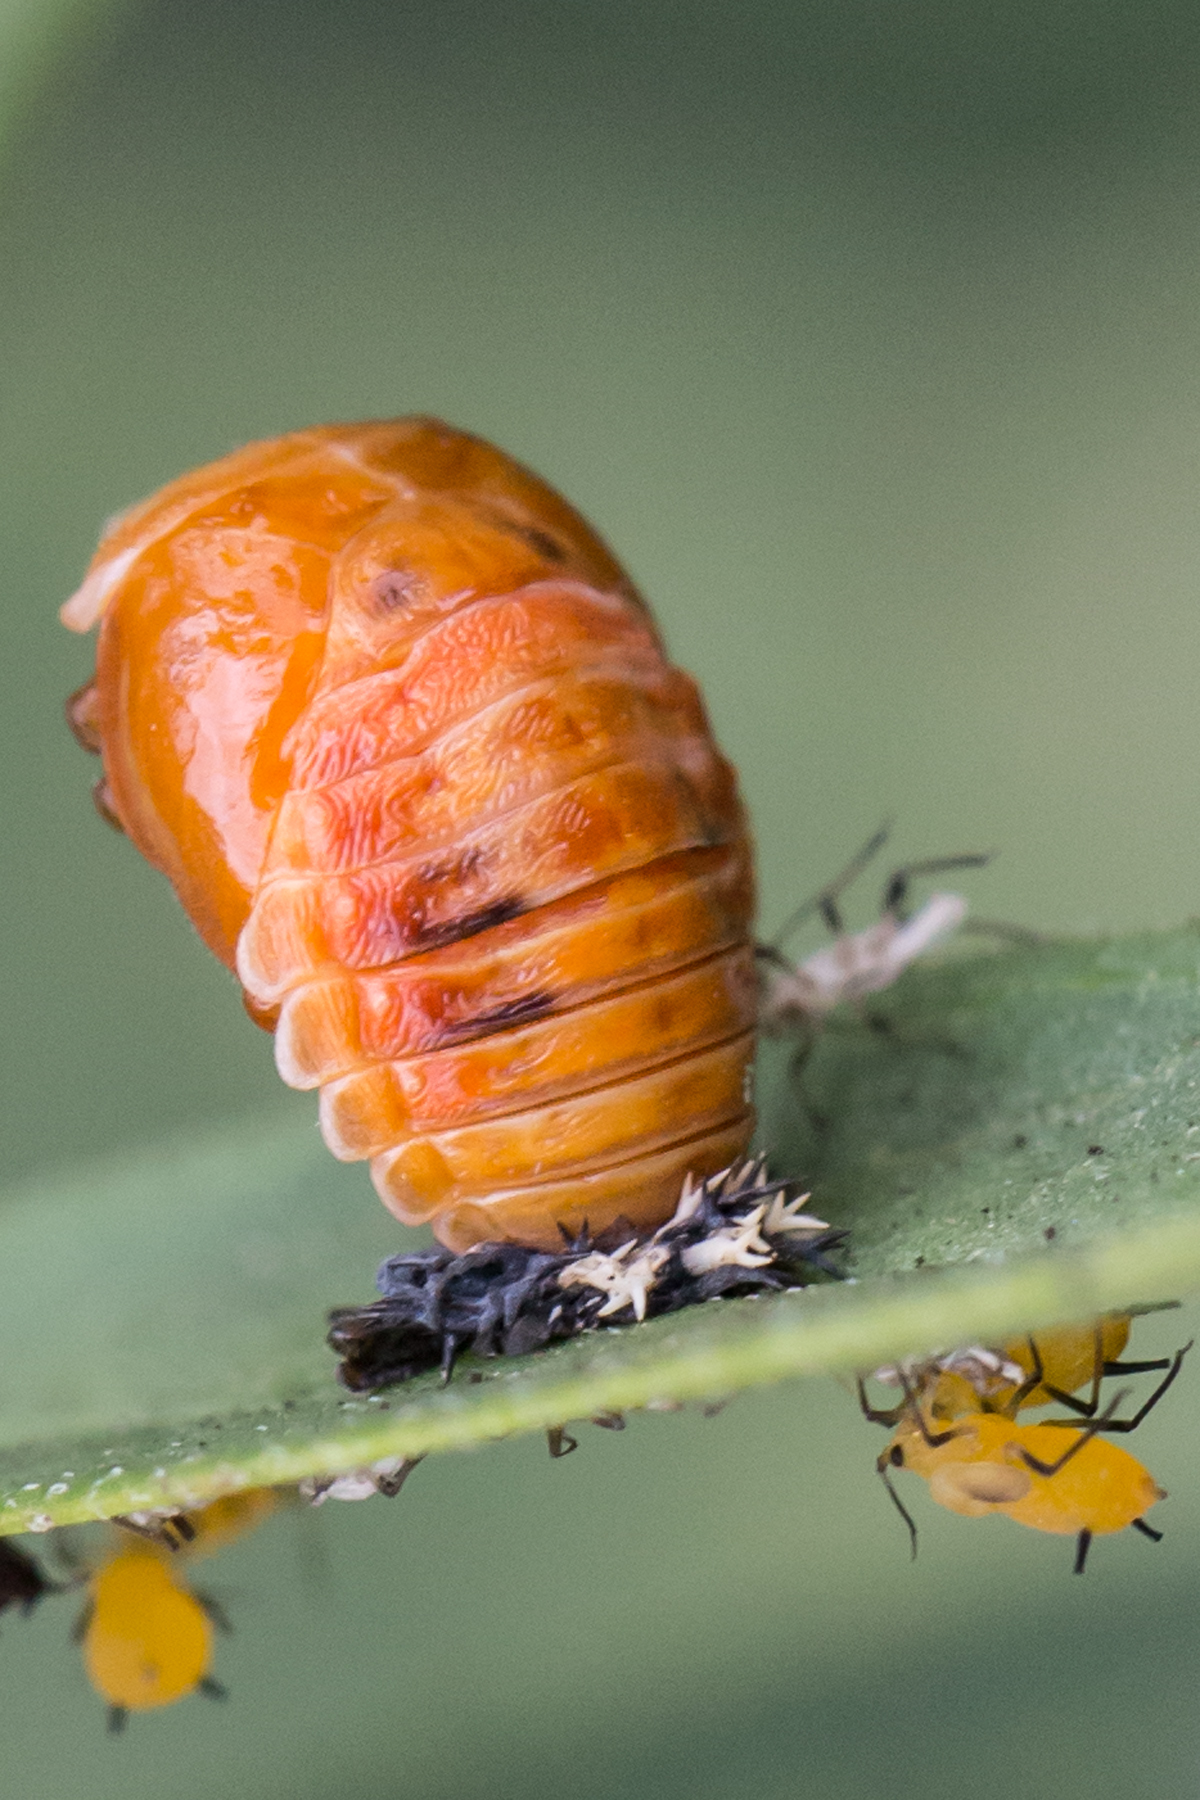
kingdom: Animalia
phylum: Arthropoda
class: Insecta
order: Coleoptera
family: Coccinellidae
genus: Harmonia
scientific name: Harmonia axyridis
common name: Harlequin ladybird
